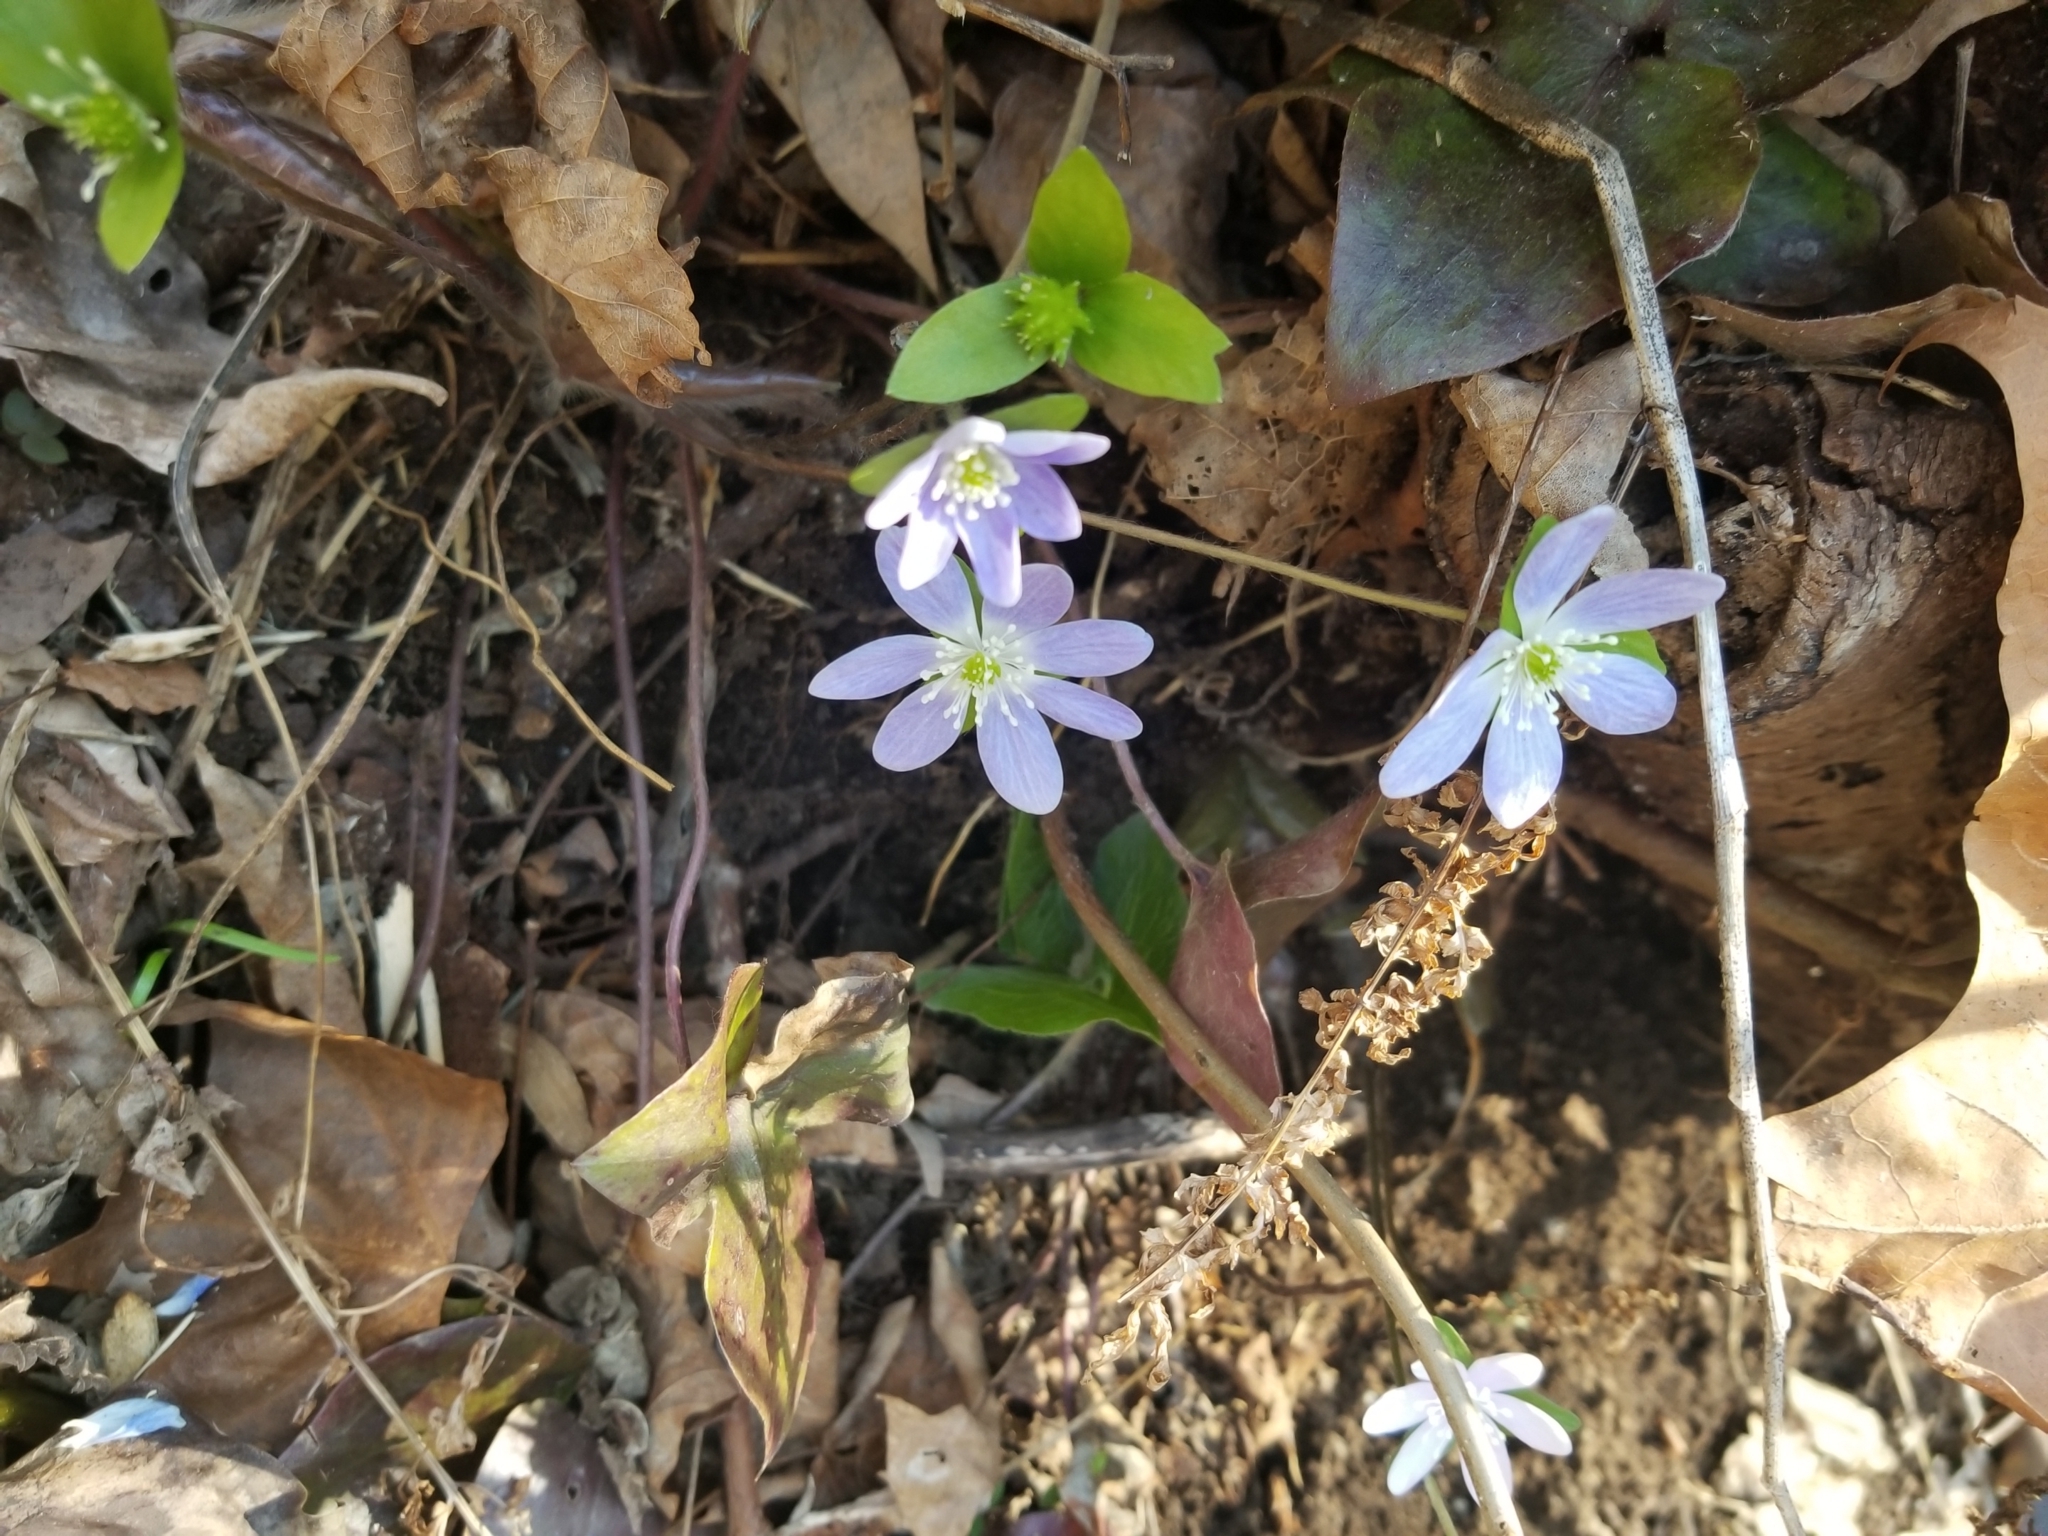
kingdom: Plantae
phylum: Tracheophyta
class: Magnoliopsida
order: Ranunculales
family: Ranunculaceae
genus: Hepatica
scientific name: Hepatica acutiloba
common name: Sharp-lobed hepatica
